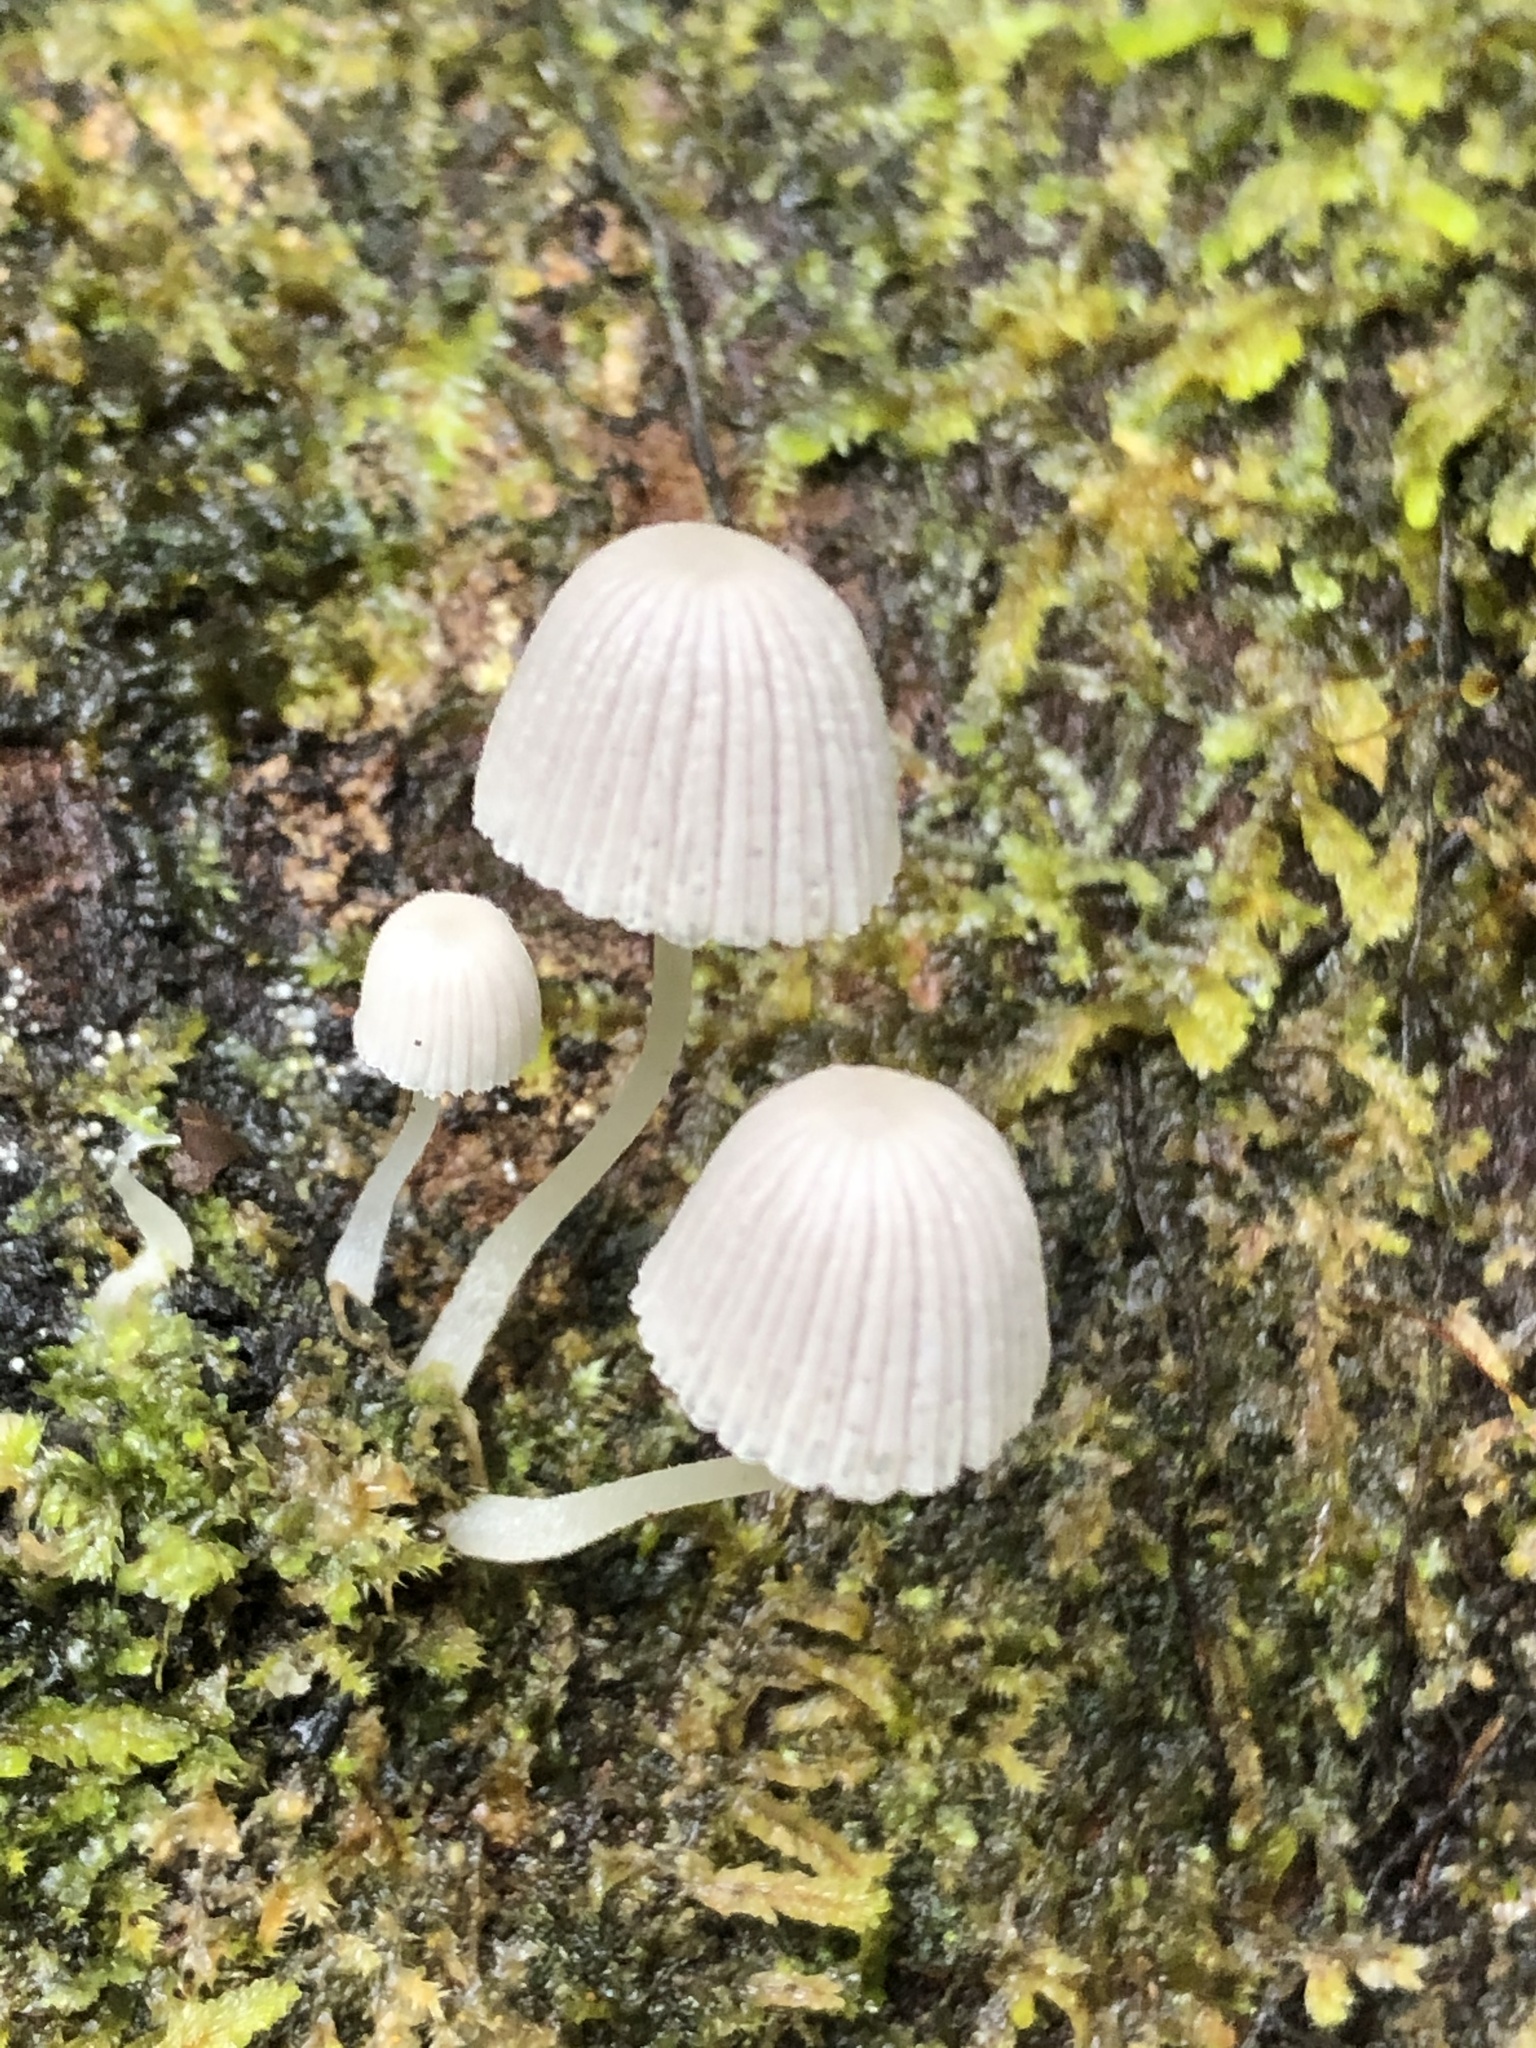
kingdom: Fungi
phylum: Basidiomycota
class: Agaricomycetes
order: Agaricales
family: Psathyrellaceae
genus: Coprinellus
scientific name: Coprinellus disseminatus
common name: Fairies' bonnets
